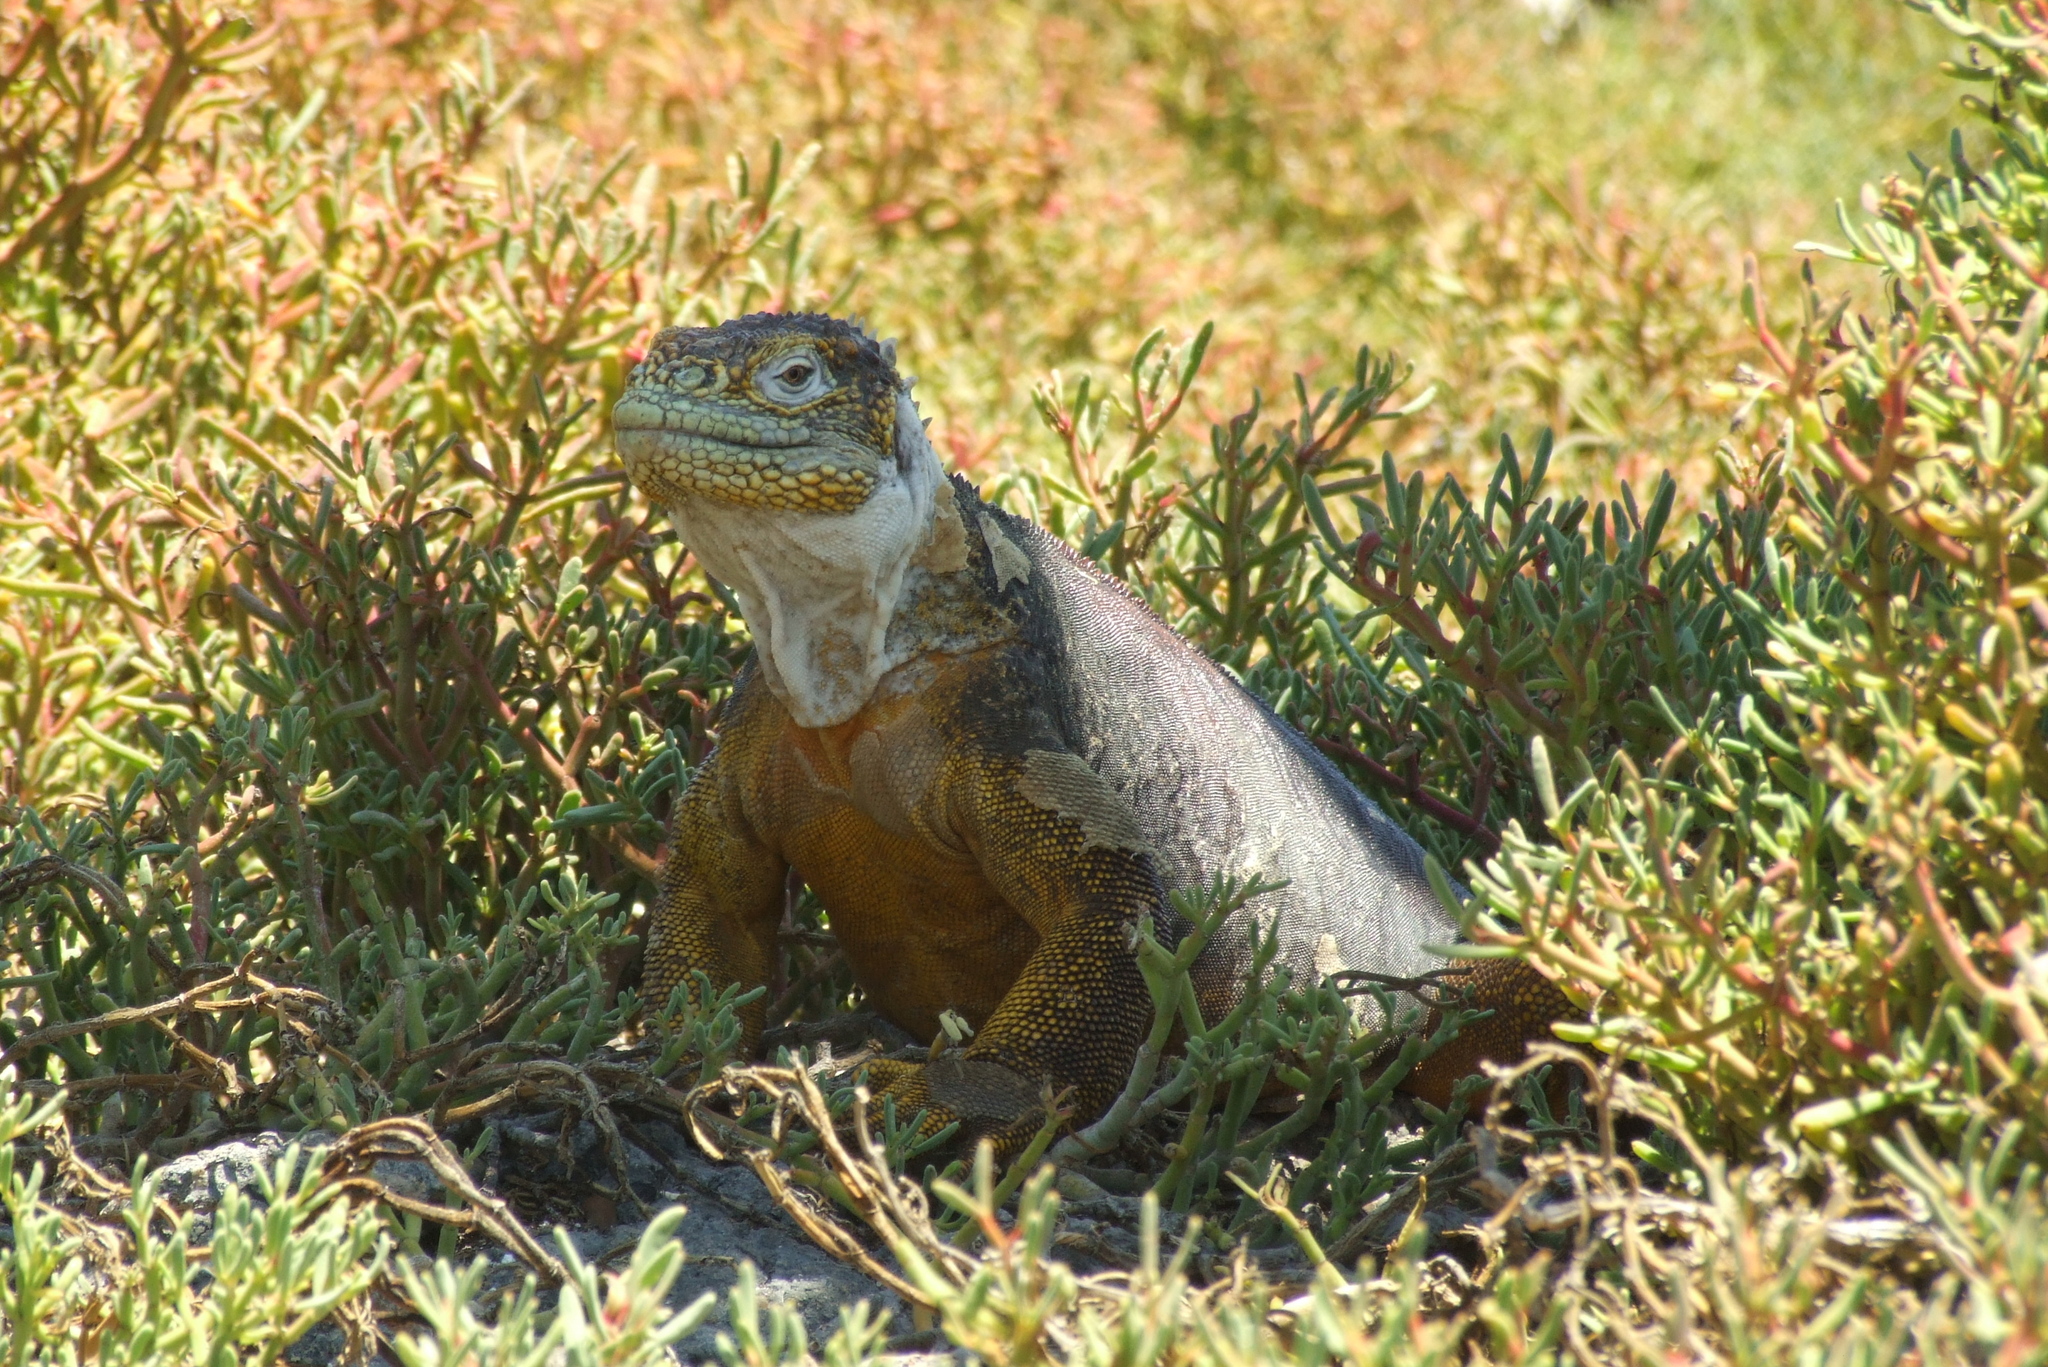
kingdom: Animalia
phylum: Chordata
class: Squamata
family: Iguanidae
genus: Conolophus
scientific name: Conolophus subcristatus
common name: Galapagos land iguana
